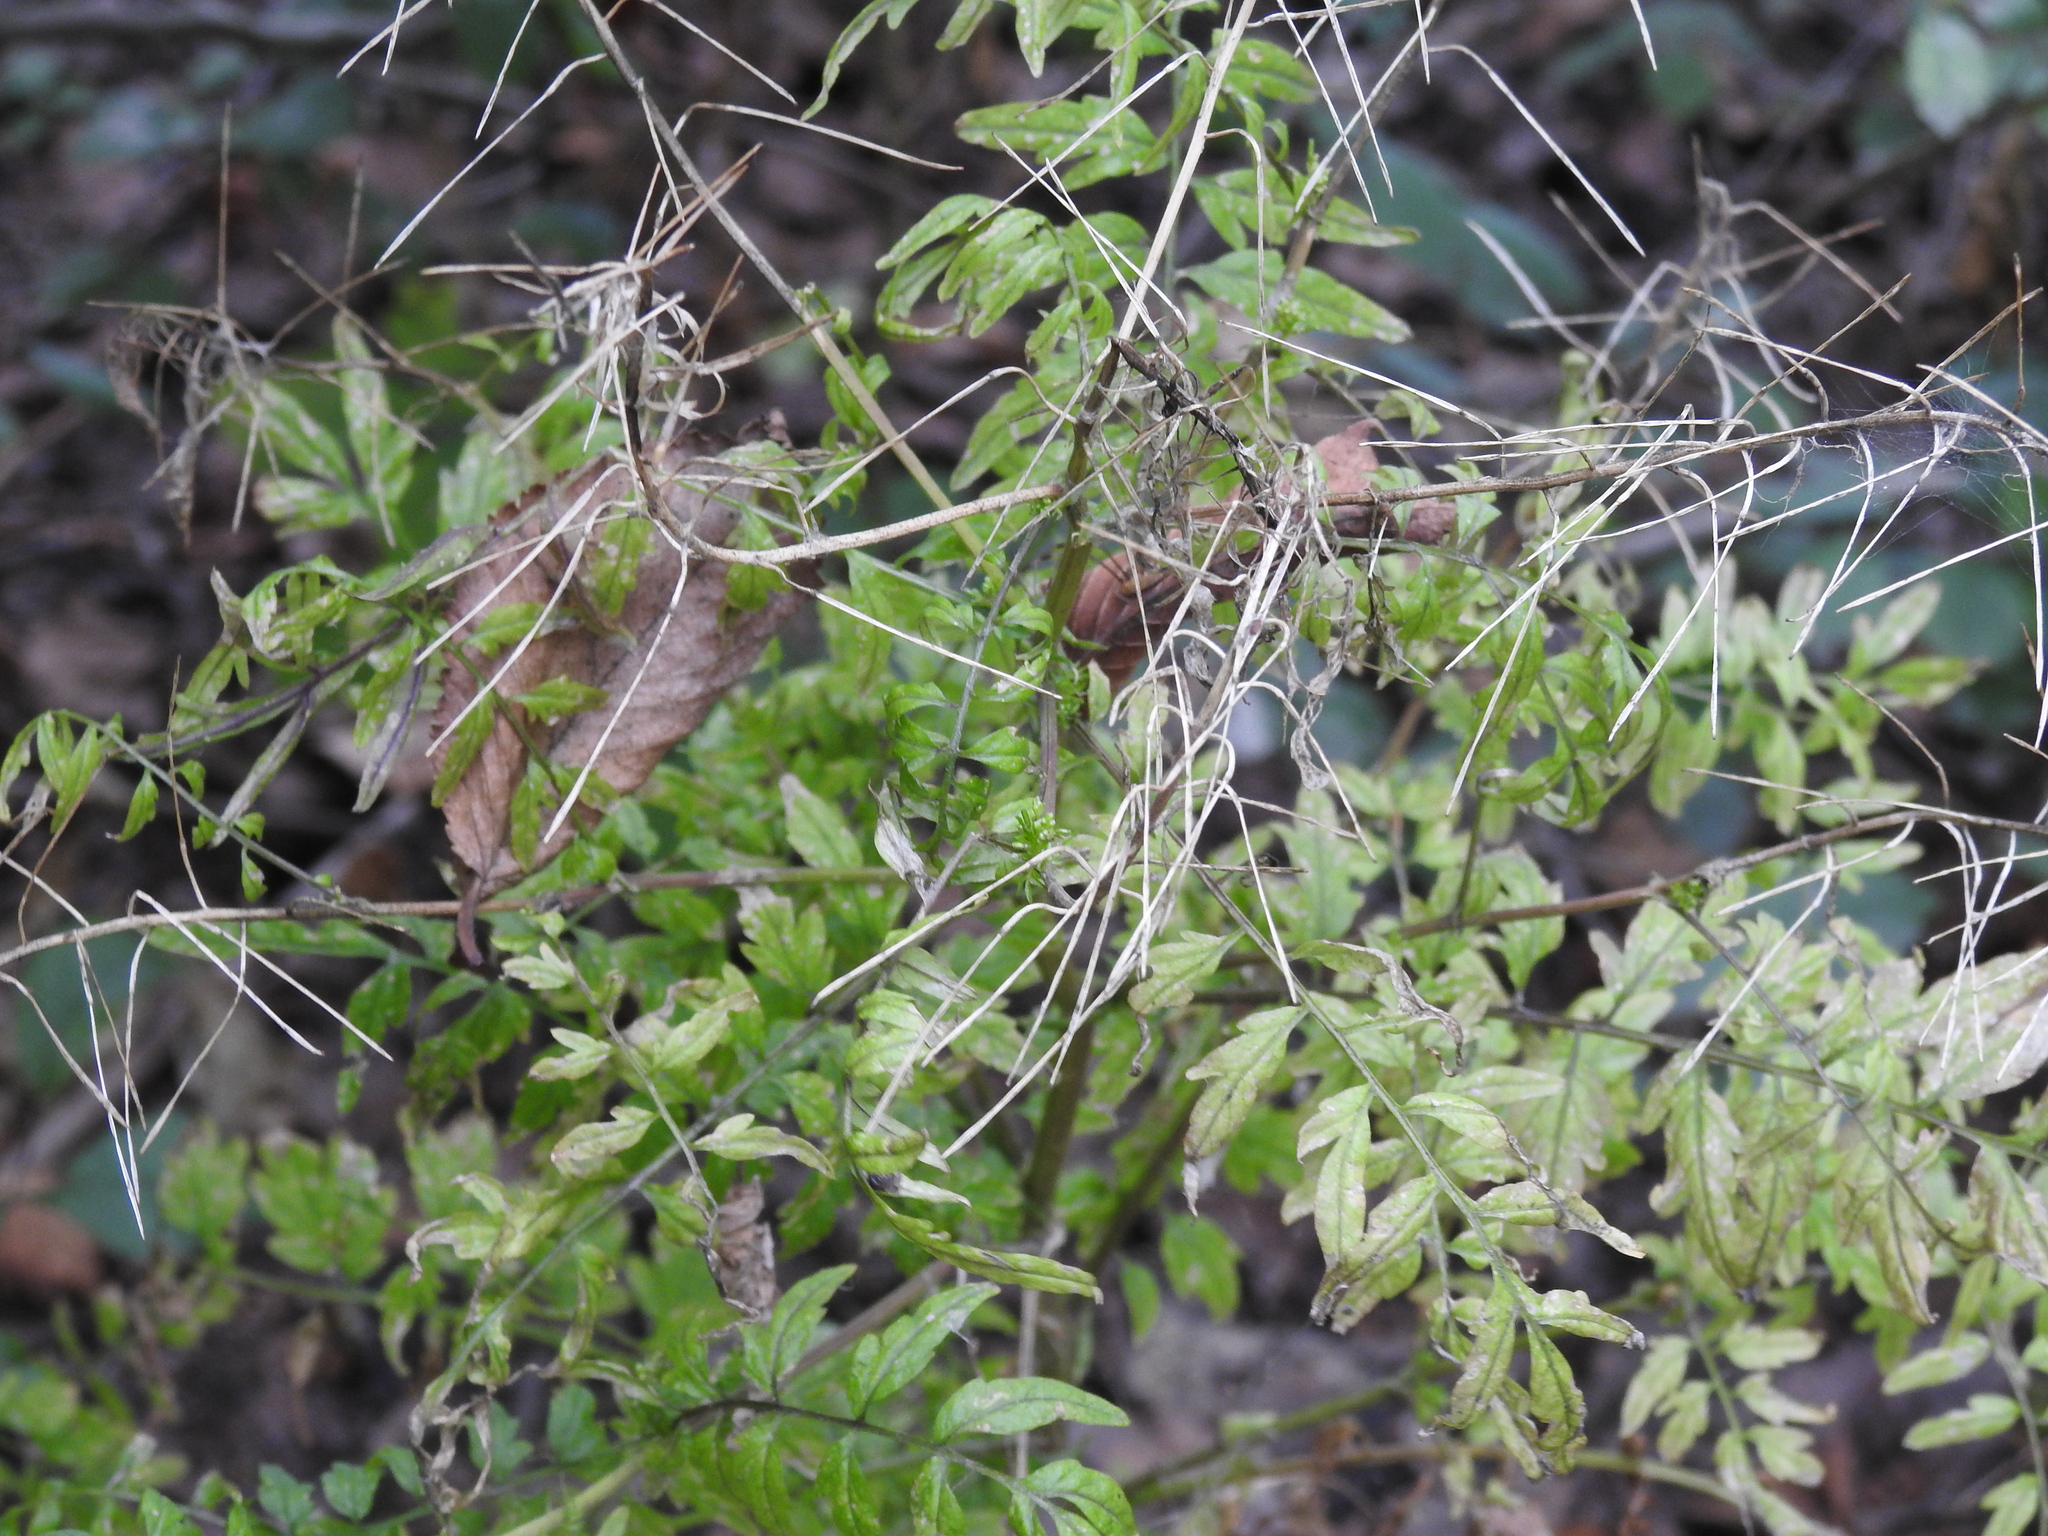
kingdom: Plantae
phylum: Tracheophyta
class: Magnoliopsida
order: Brassicales
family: Brassicaceae
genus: Cardamine
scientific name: Cardamine impatiens
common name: Narrow-leaved bitter-cress
